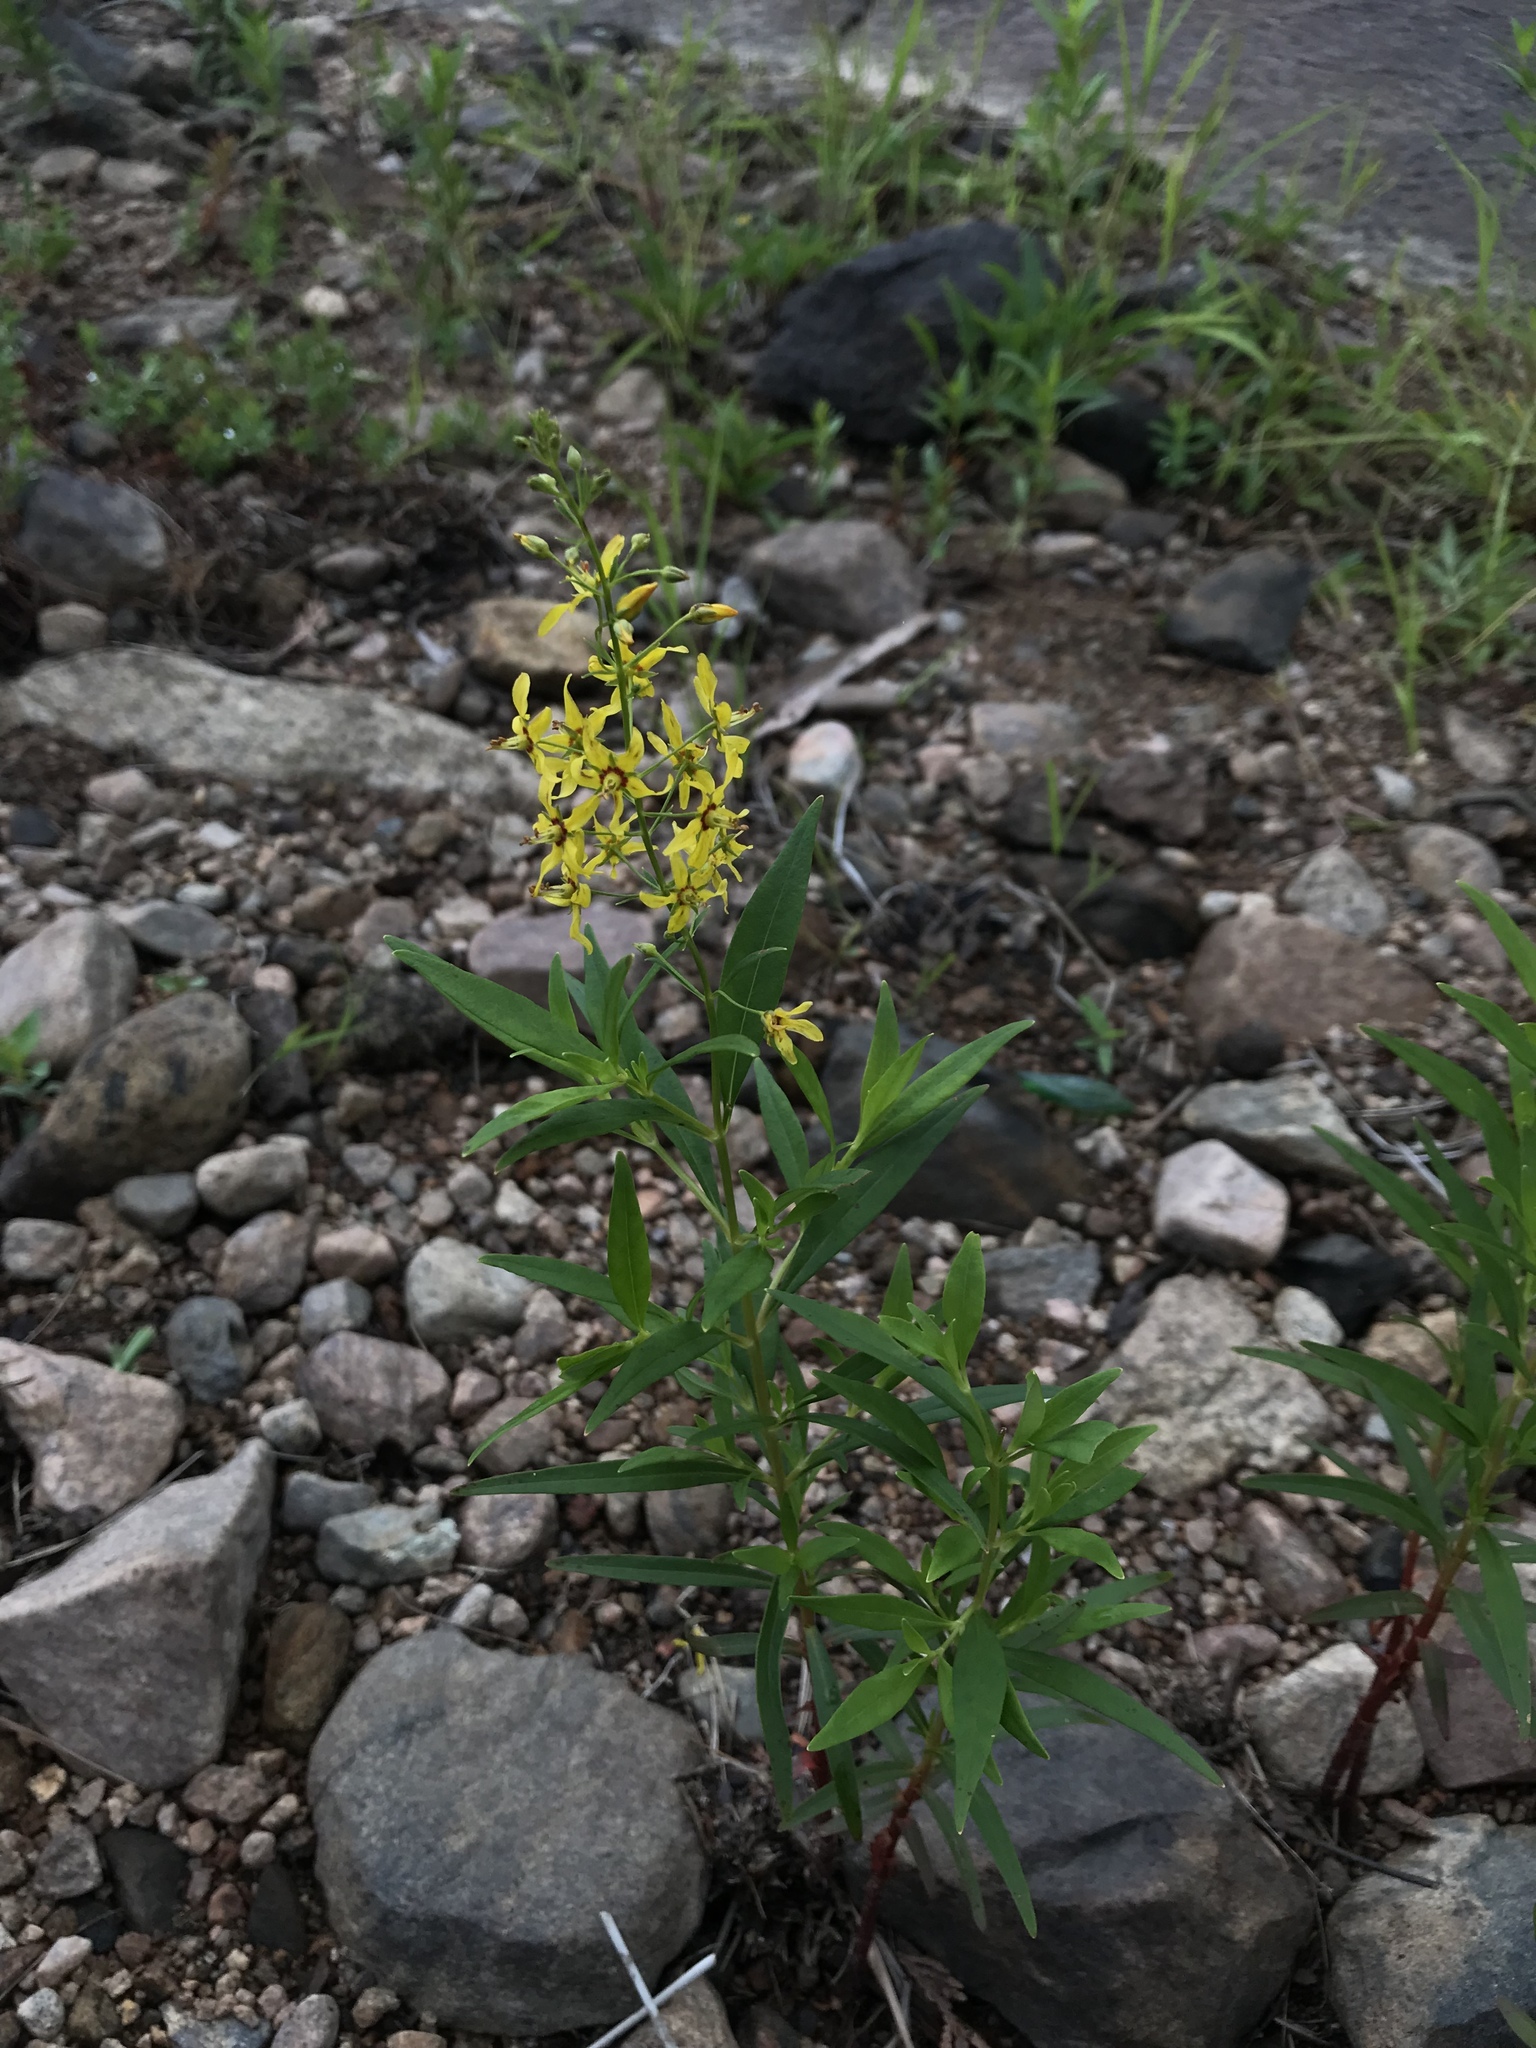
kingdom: Plantae
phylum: Tracheophyta
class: Magnoliopsida
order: Ericales
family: Primulaceae
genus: Lysimachia
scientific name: Lysimachia terrestris
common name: Lake loosestrife
